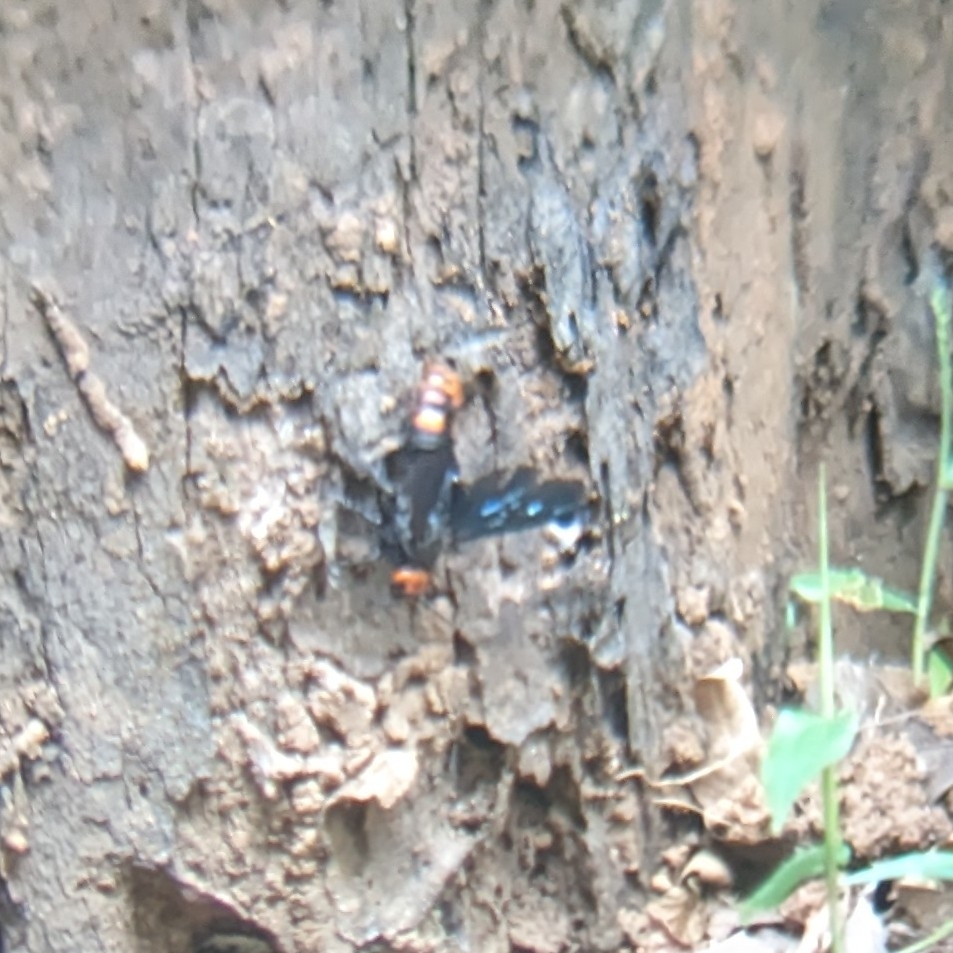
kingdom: Animalia
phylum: Arthropoda
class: Insecta
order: Hymenoptera
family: Scoliidae
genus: Megascolia
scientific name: Megascolia azurea
